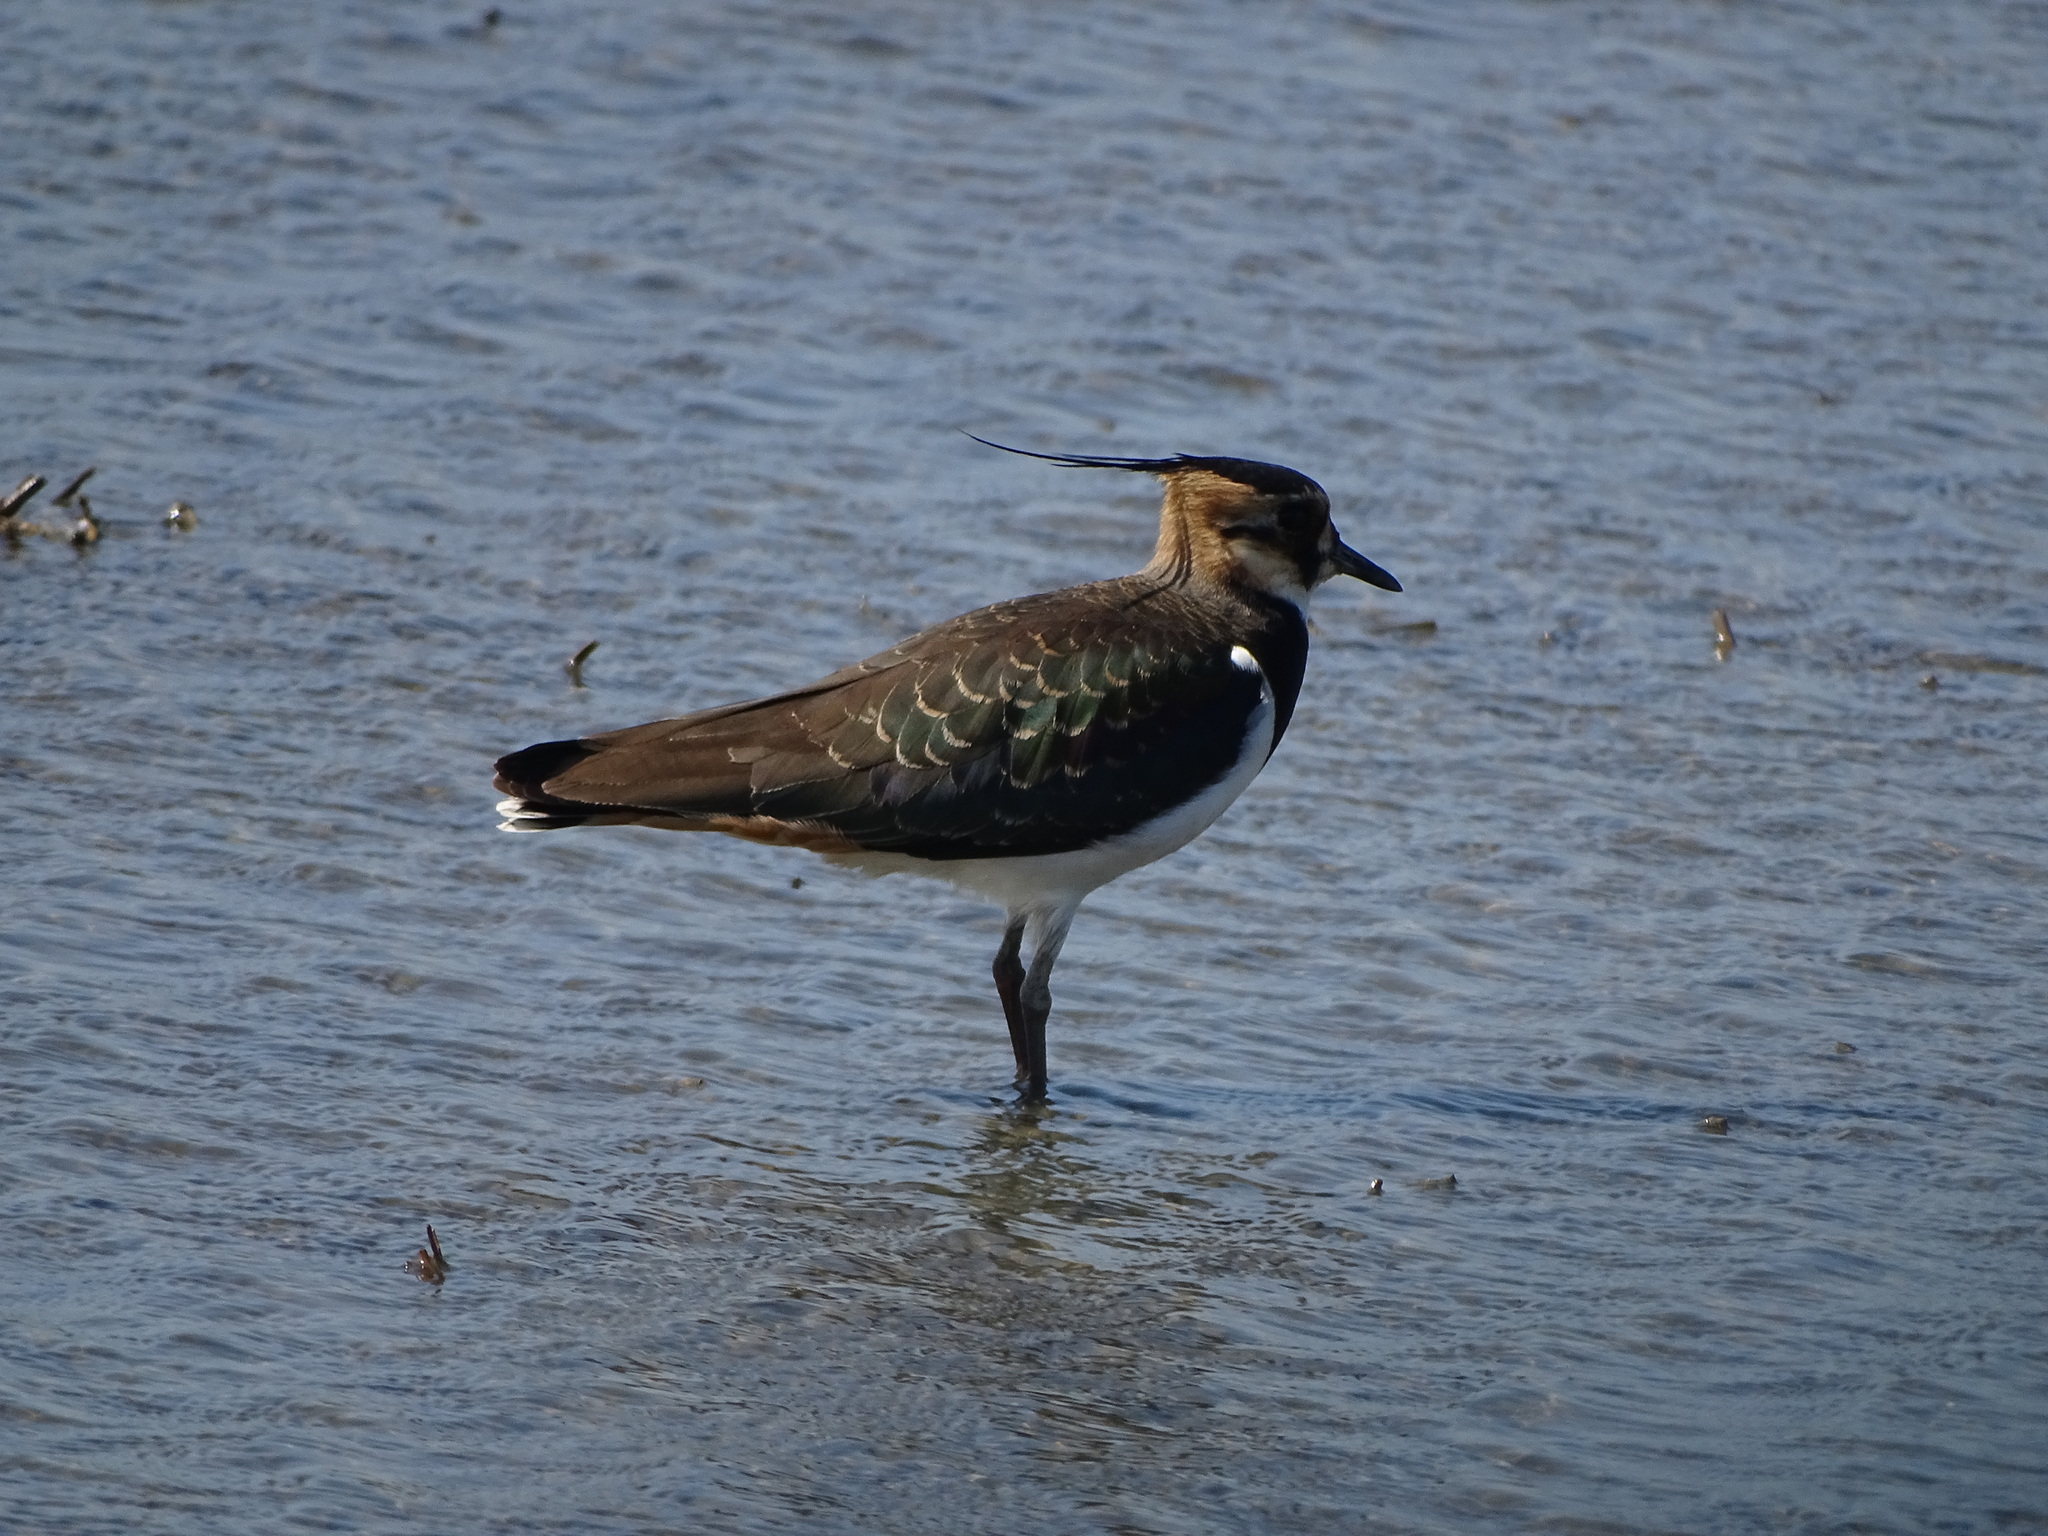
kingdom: Animalia
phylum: Chordata
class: Aves
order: Charadriiformes
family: Charadriidae
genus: Vanellus
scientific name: Vanellus vanellus
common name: Northern lapwing
